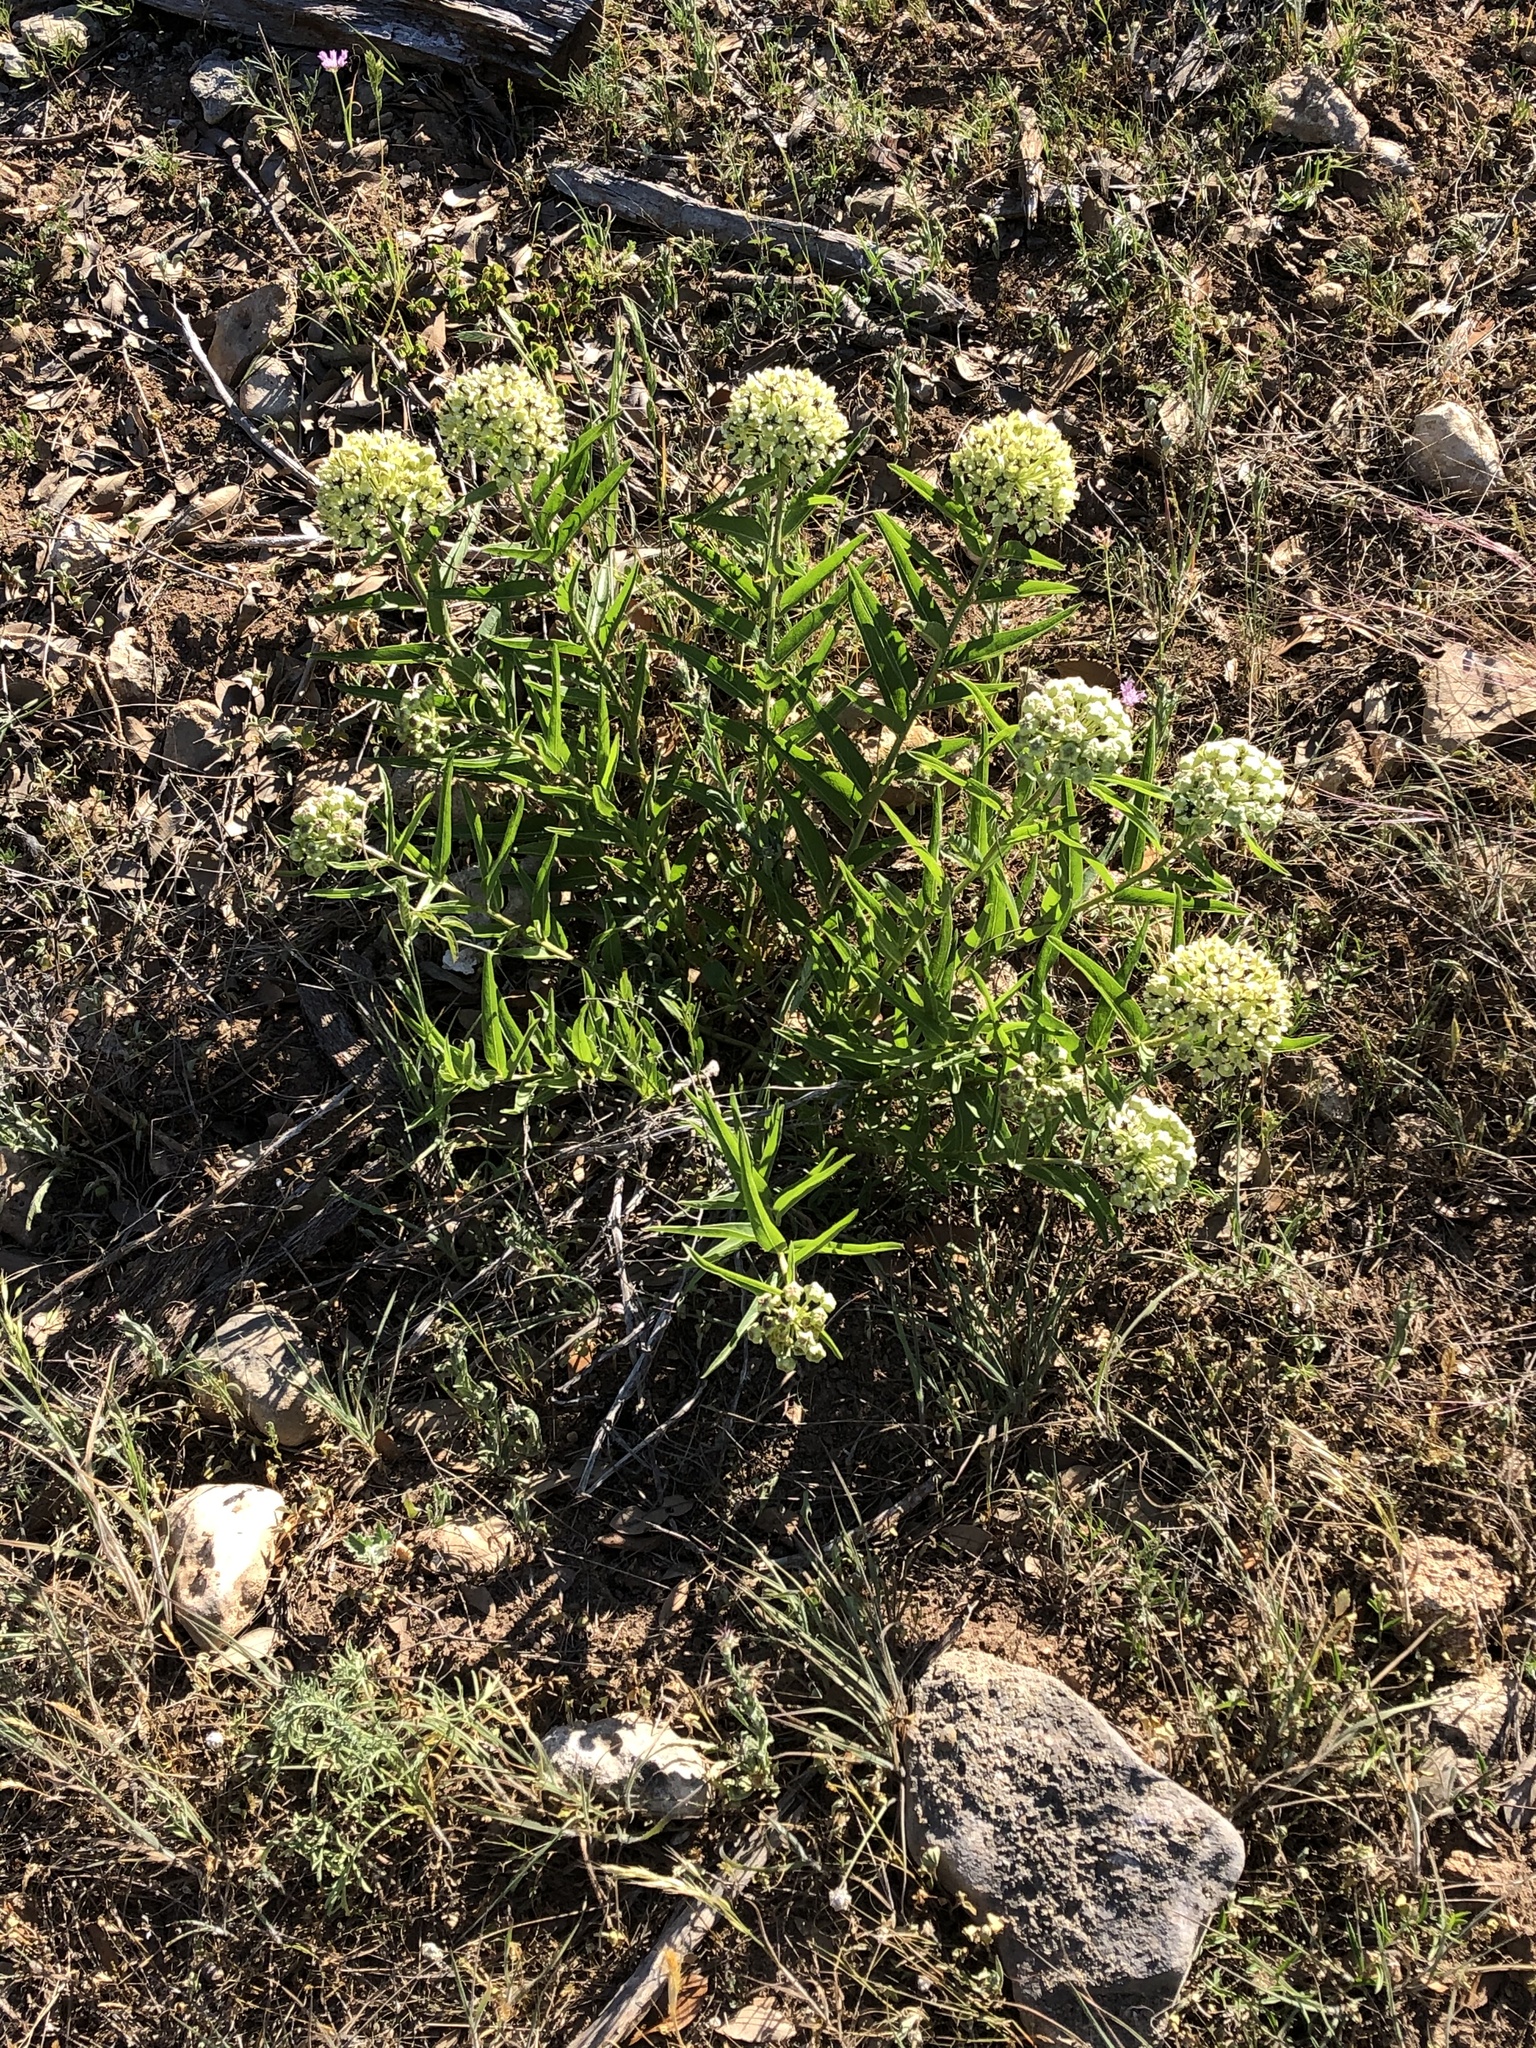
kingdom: Plantae
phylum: Tracheophyta
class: Magnoliopsida
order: Gentianales
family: Apocynaceae
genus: Asclepias
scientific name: Asclepias asperula
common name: Antelope horns
